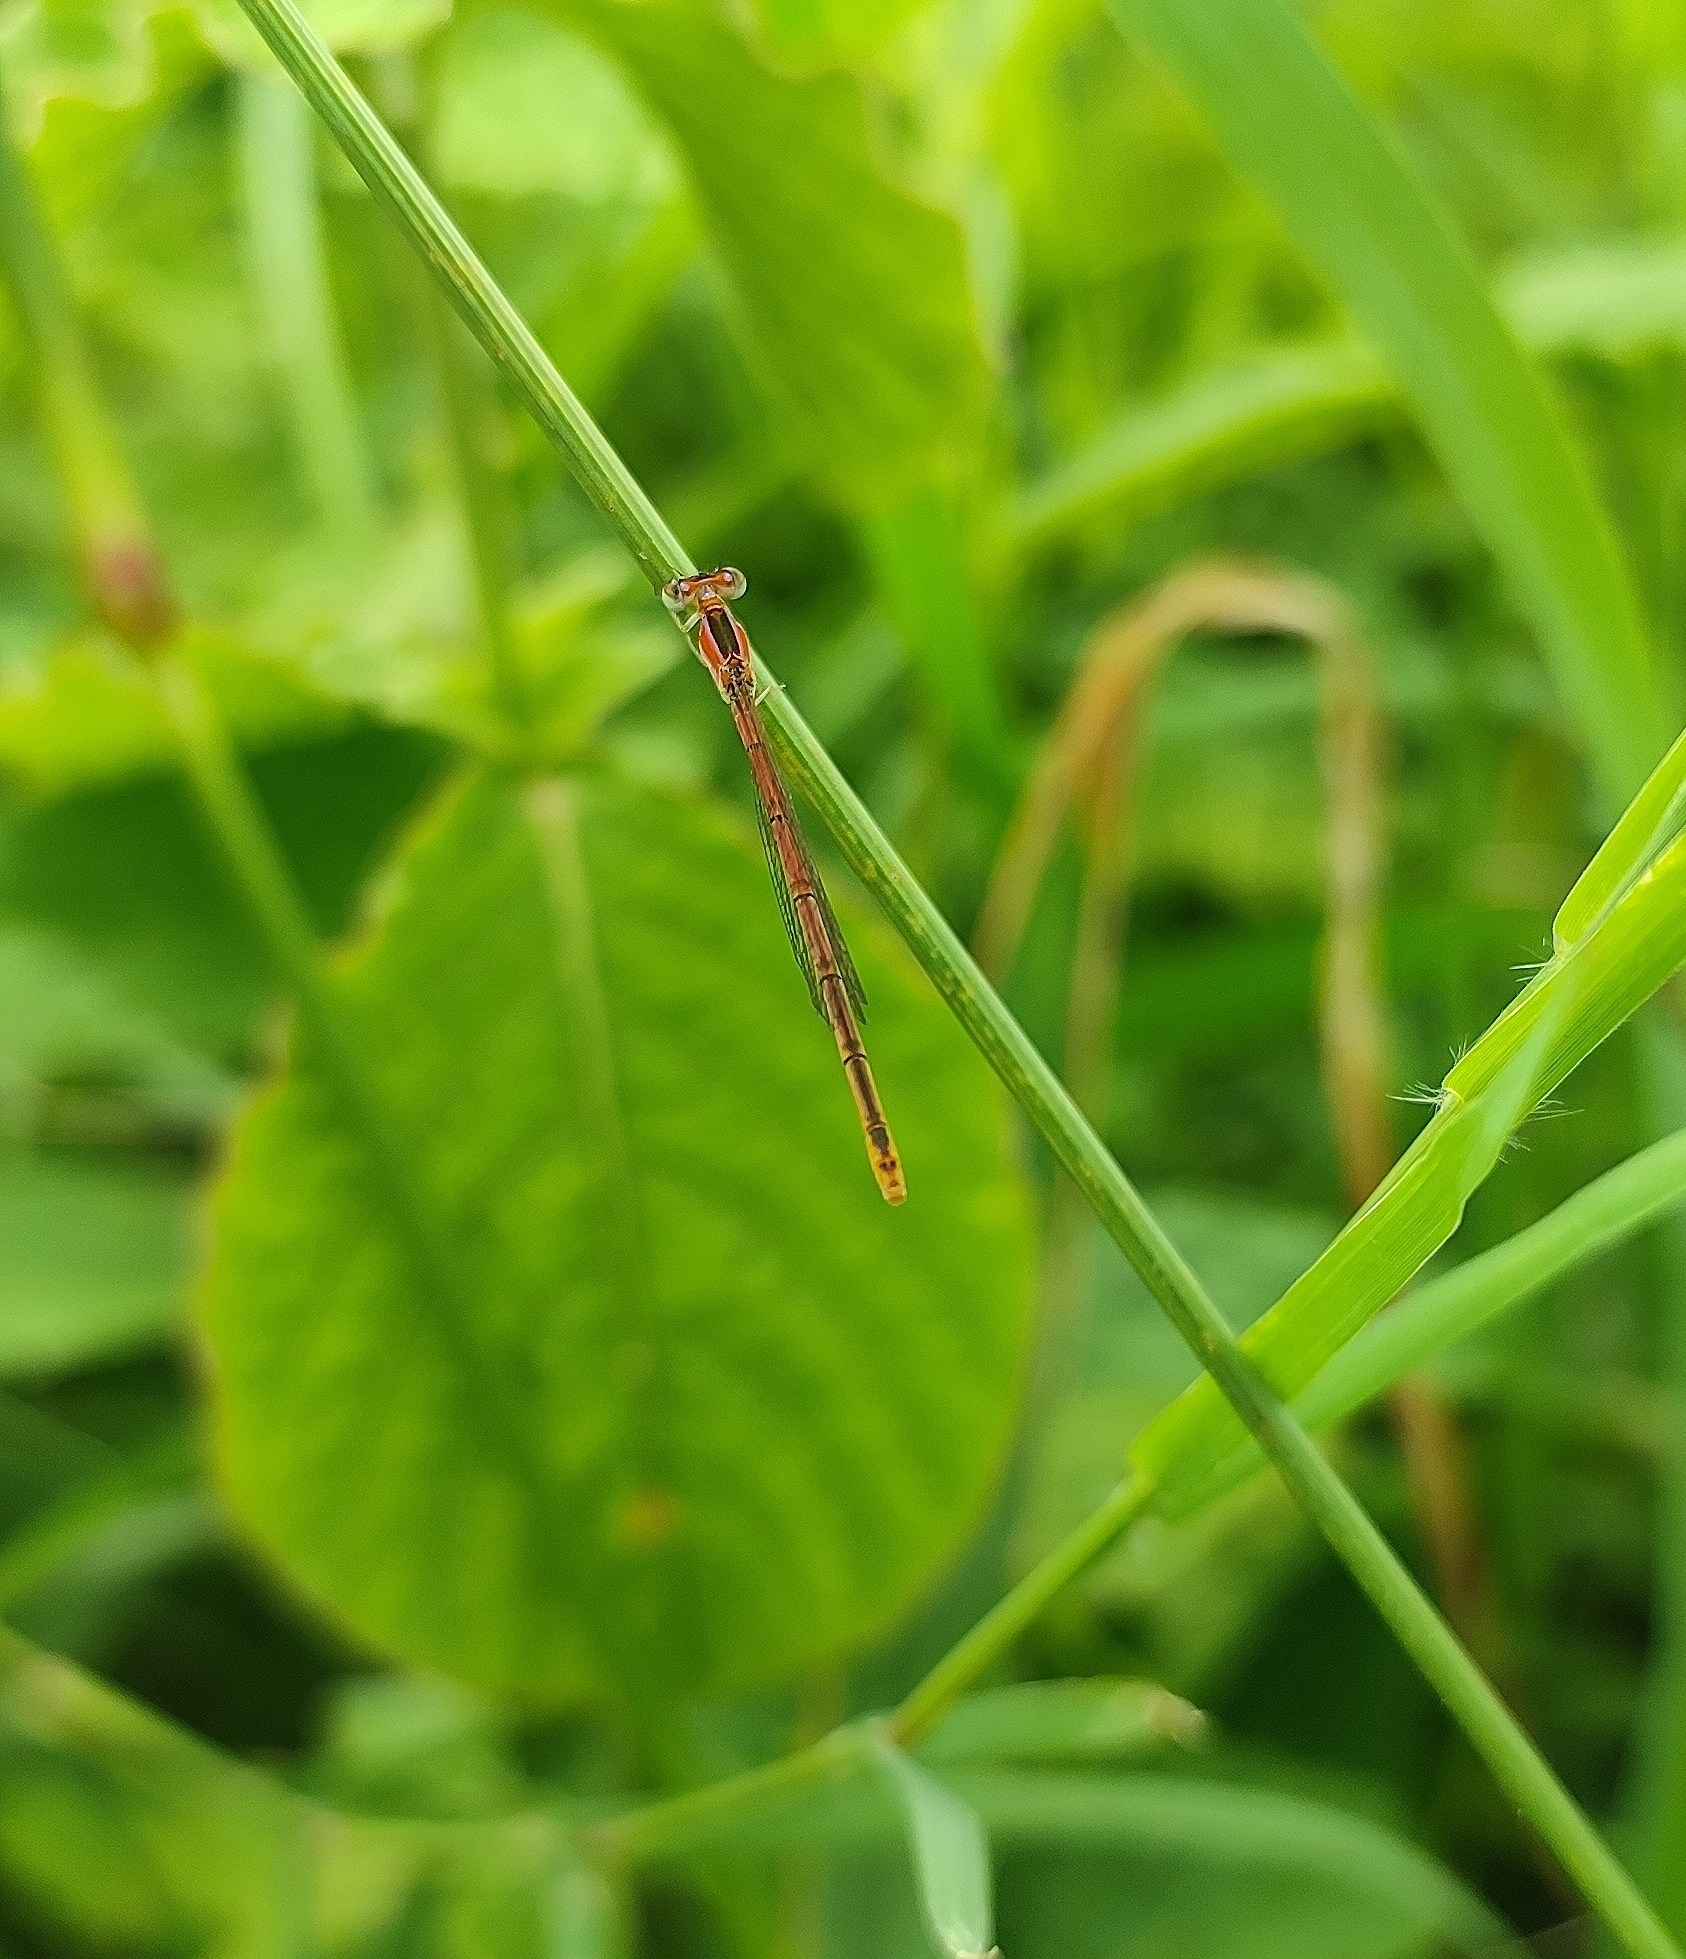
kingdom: Animalia
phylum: Arthropoda
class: Insecta
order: Odonata
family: Coenagrionidae
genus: Agriocnemis
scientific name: Agriocnemis pygmaea
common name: Pygmy wisp
